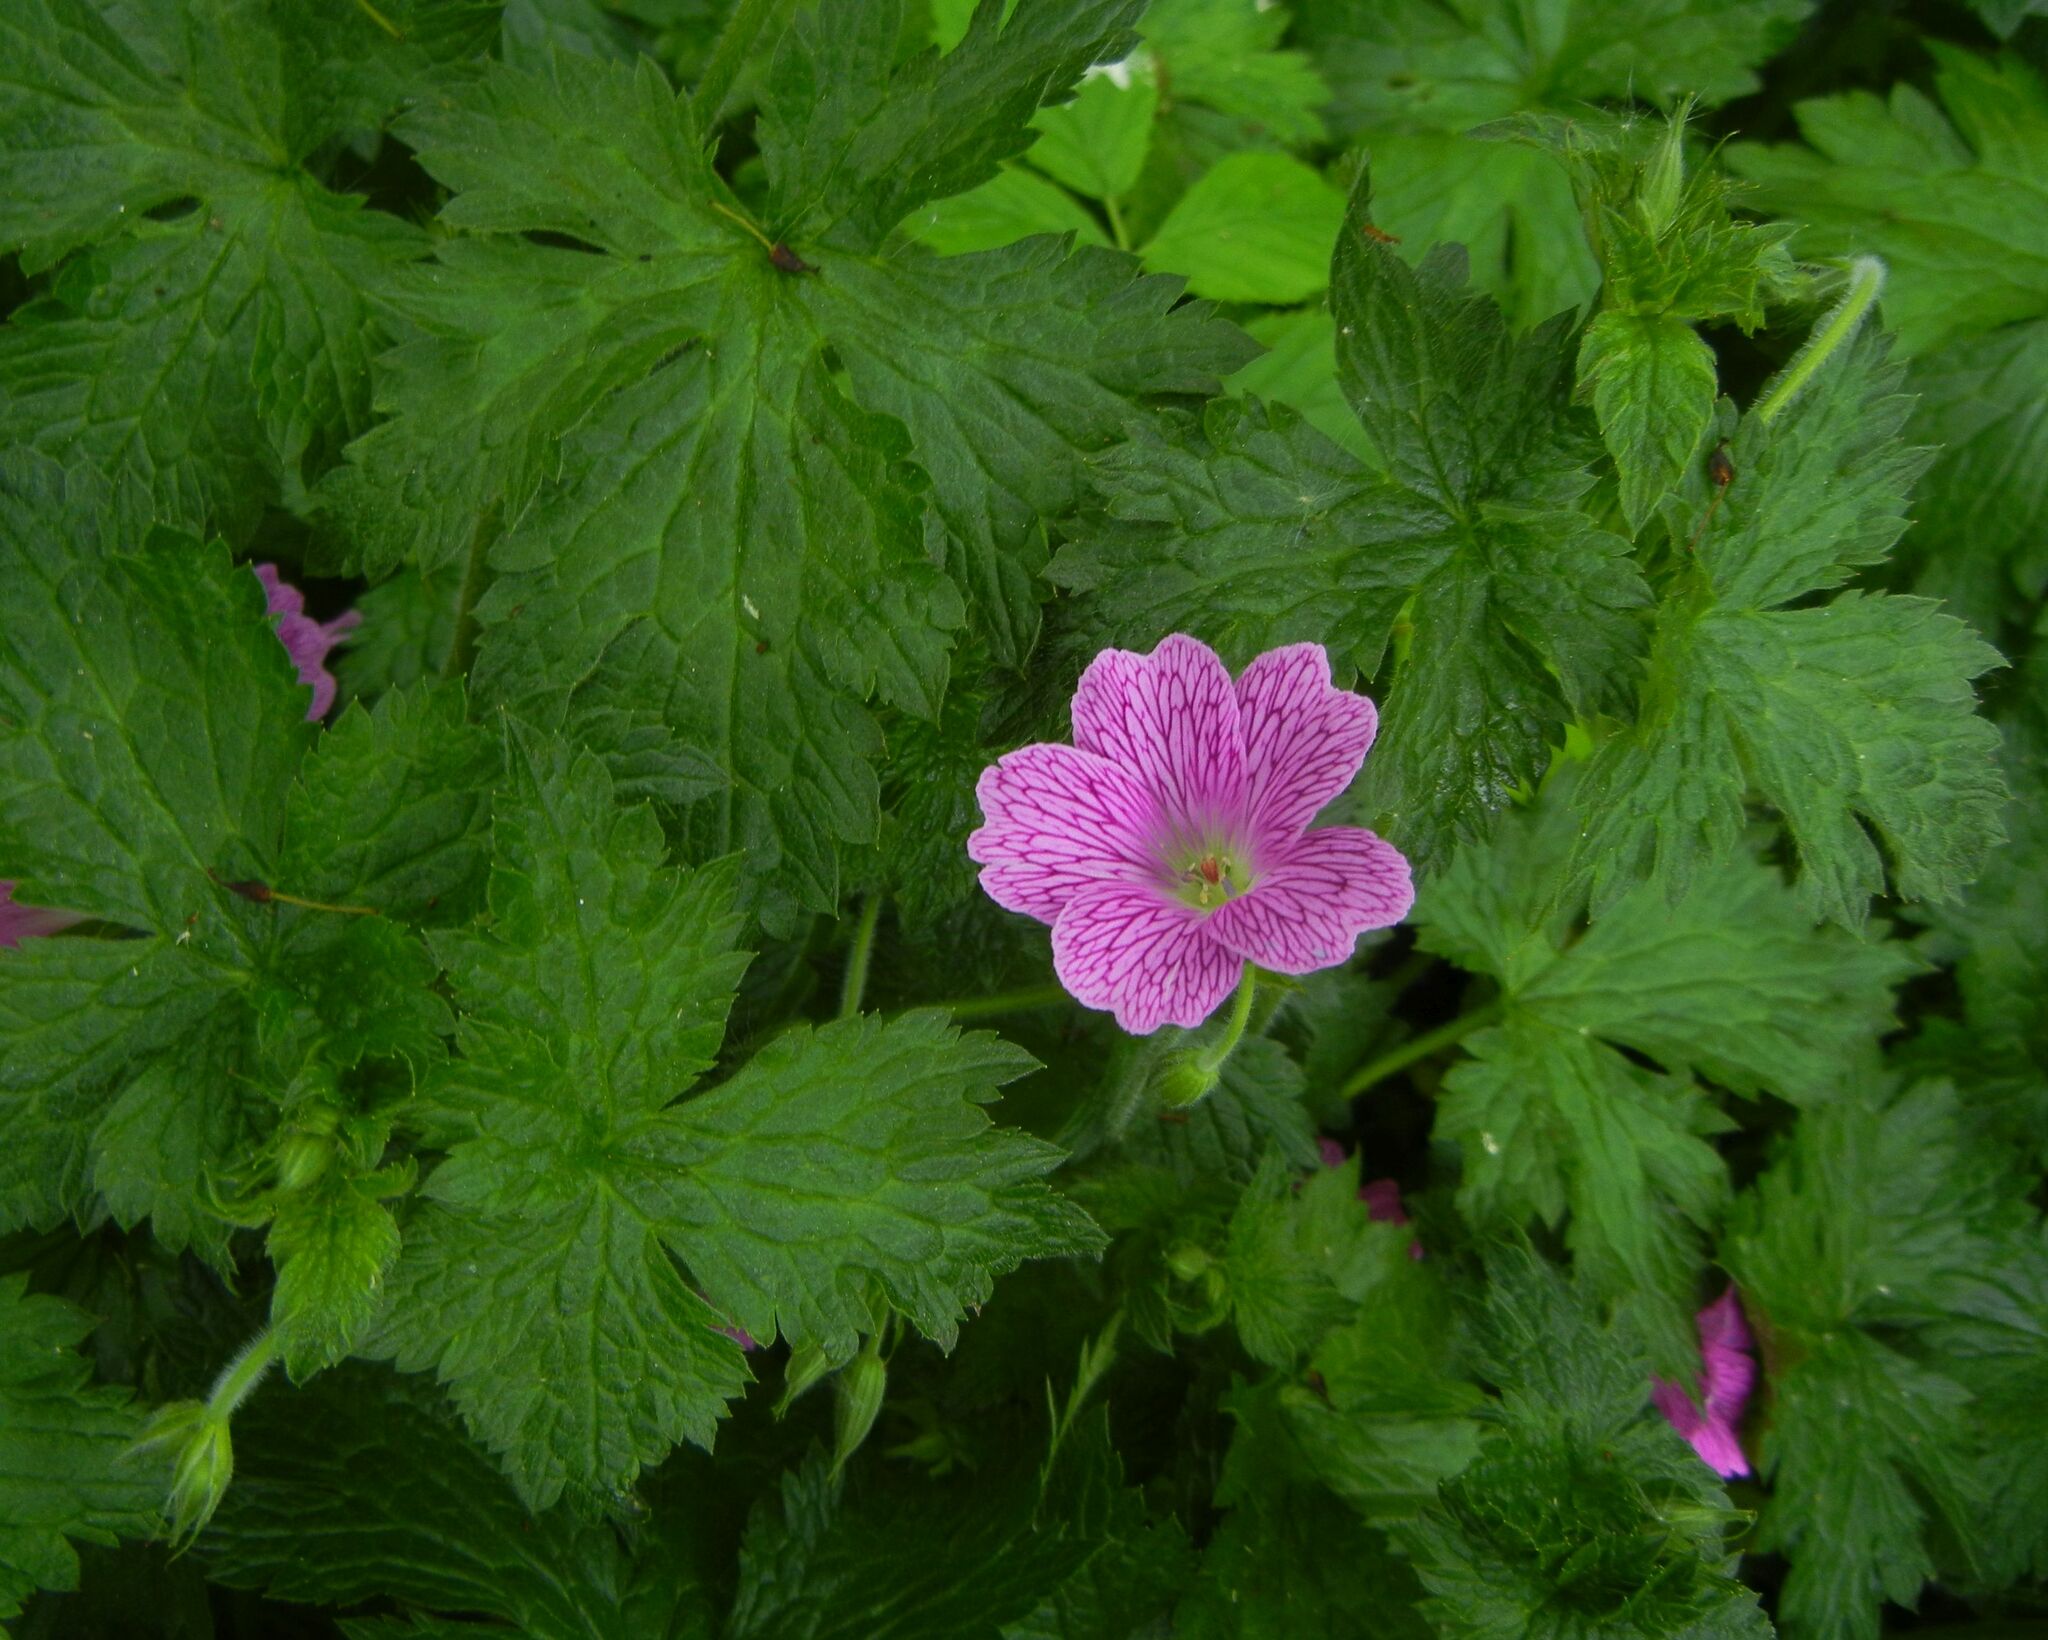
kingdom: Plantae
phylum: Tracheophyta
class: Magnoliopsida
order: Geraniales
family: Geraniaceae
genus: Geranium
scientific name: Geranium oxonianum
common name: Druce's crane's-bill
